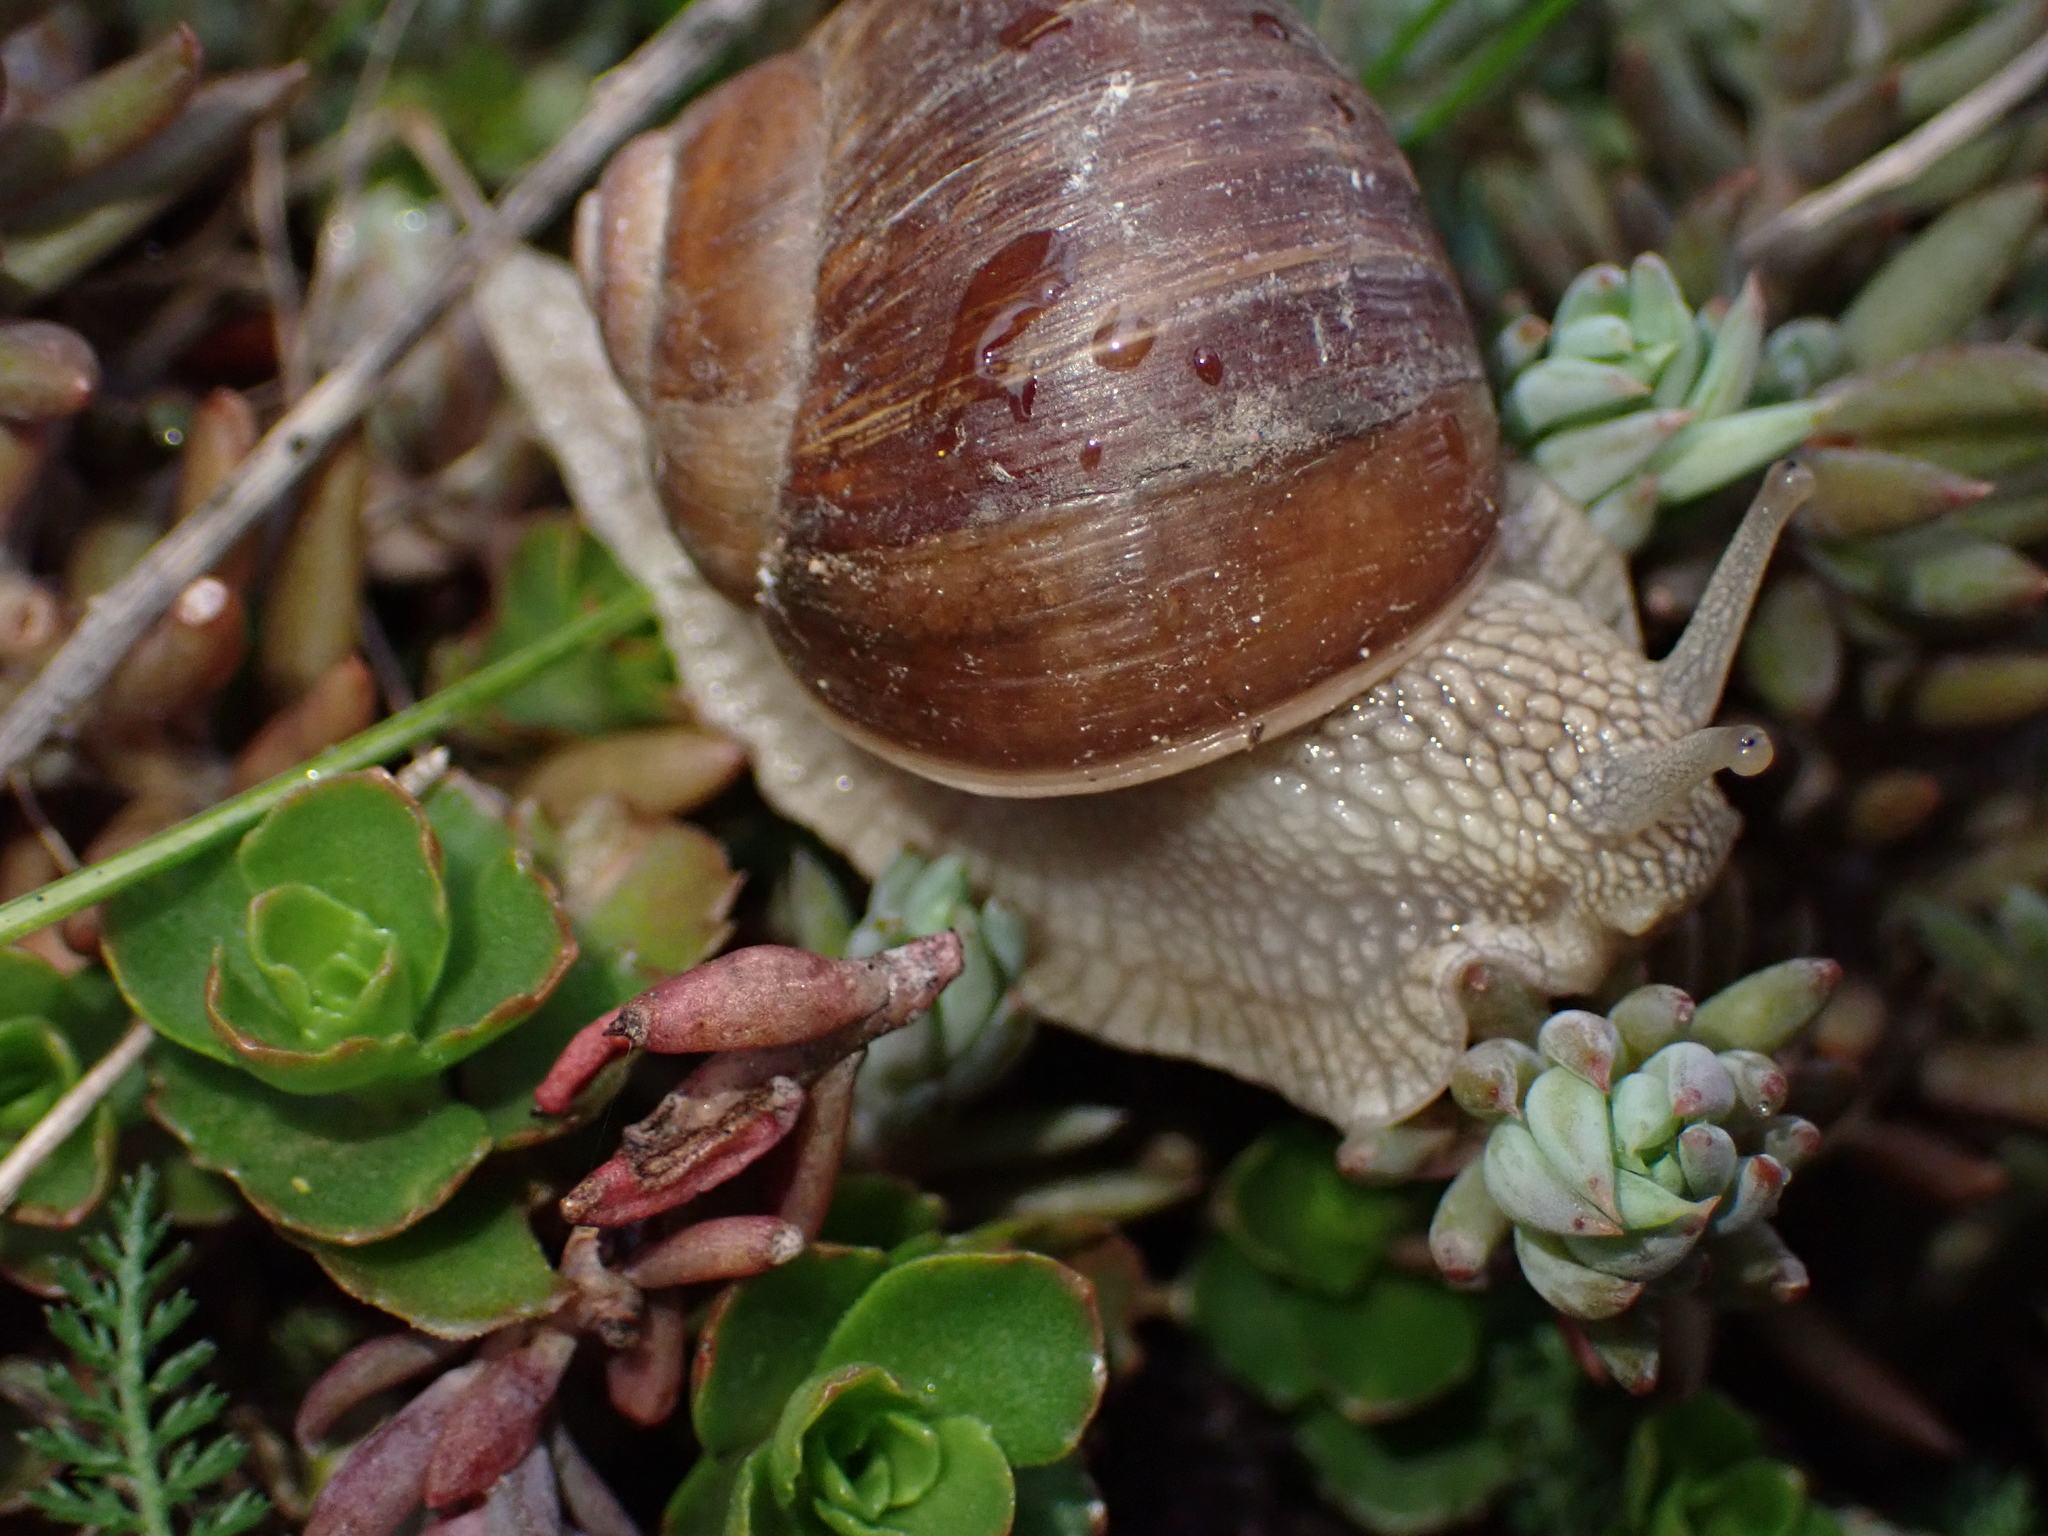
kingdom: Animalia
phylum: Mollusca
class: Gastropoda
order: Stylommatophora
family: Helicidae
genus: Helix
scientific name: Helix pomatia
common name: Roman snail
